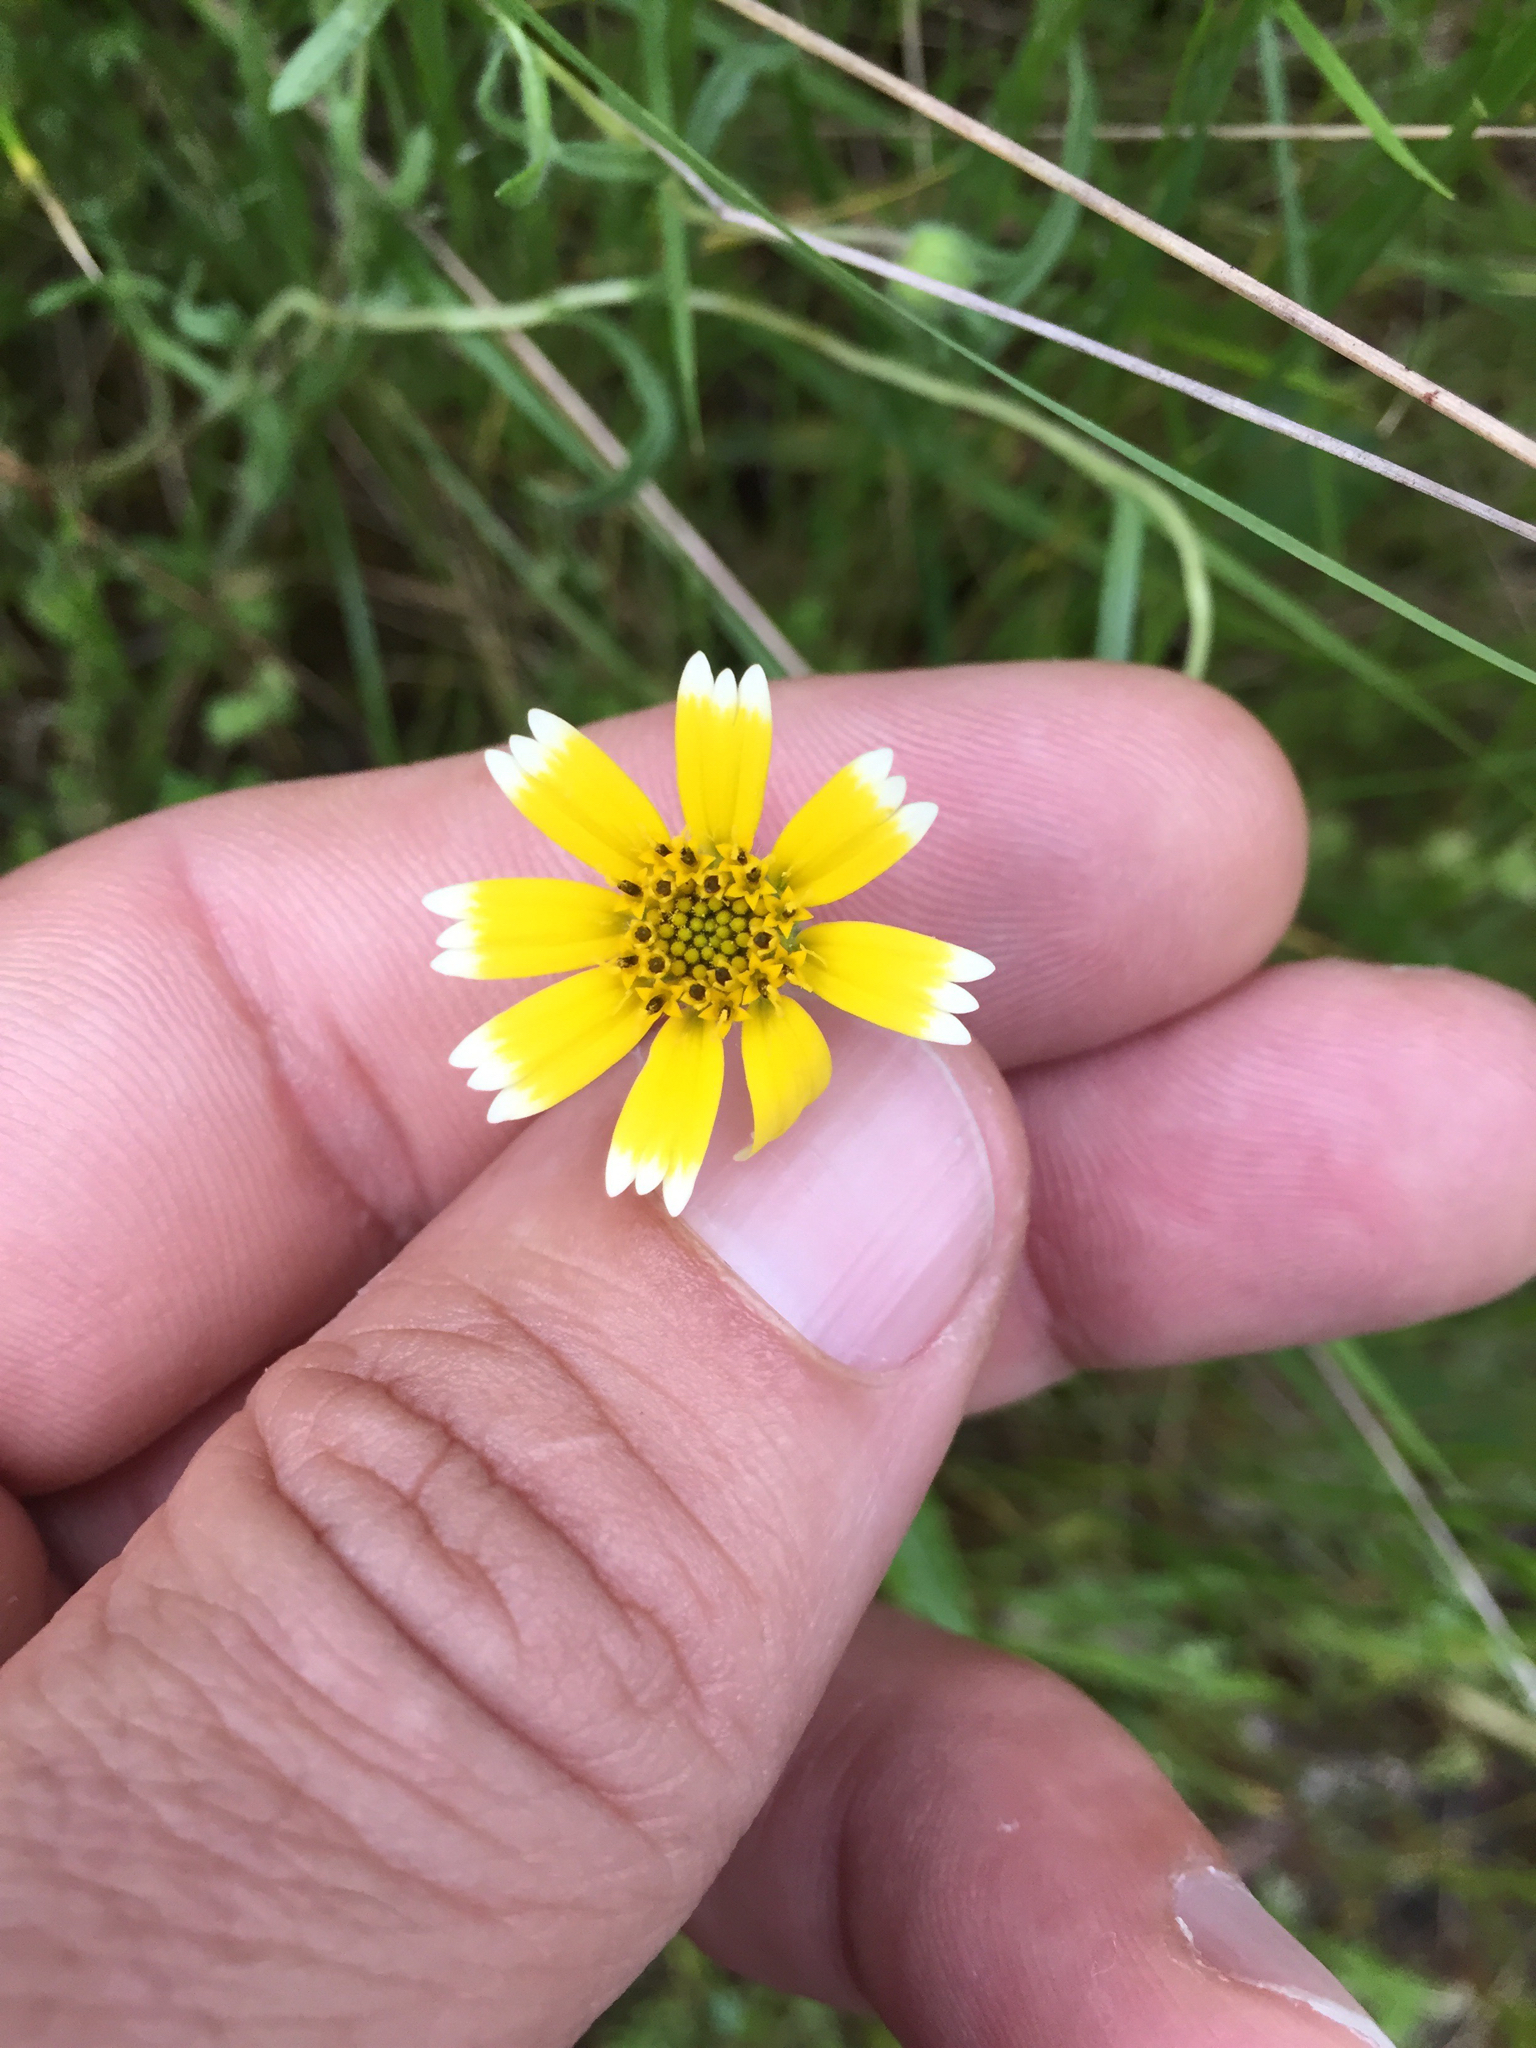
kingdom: Plantae
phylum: Tracheophyta
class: Magnoliopsida
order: Asterales
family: Asteraceae
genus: Layia
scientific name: Layia platyglossa
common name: Tidy-tips
